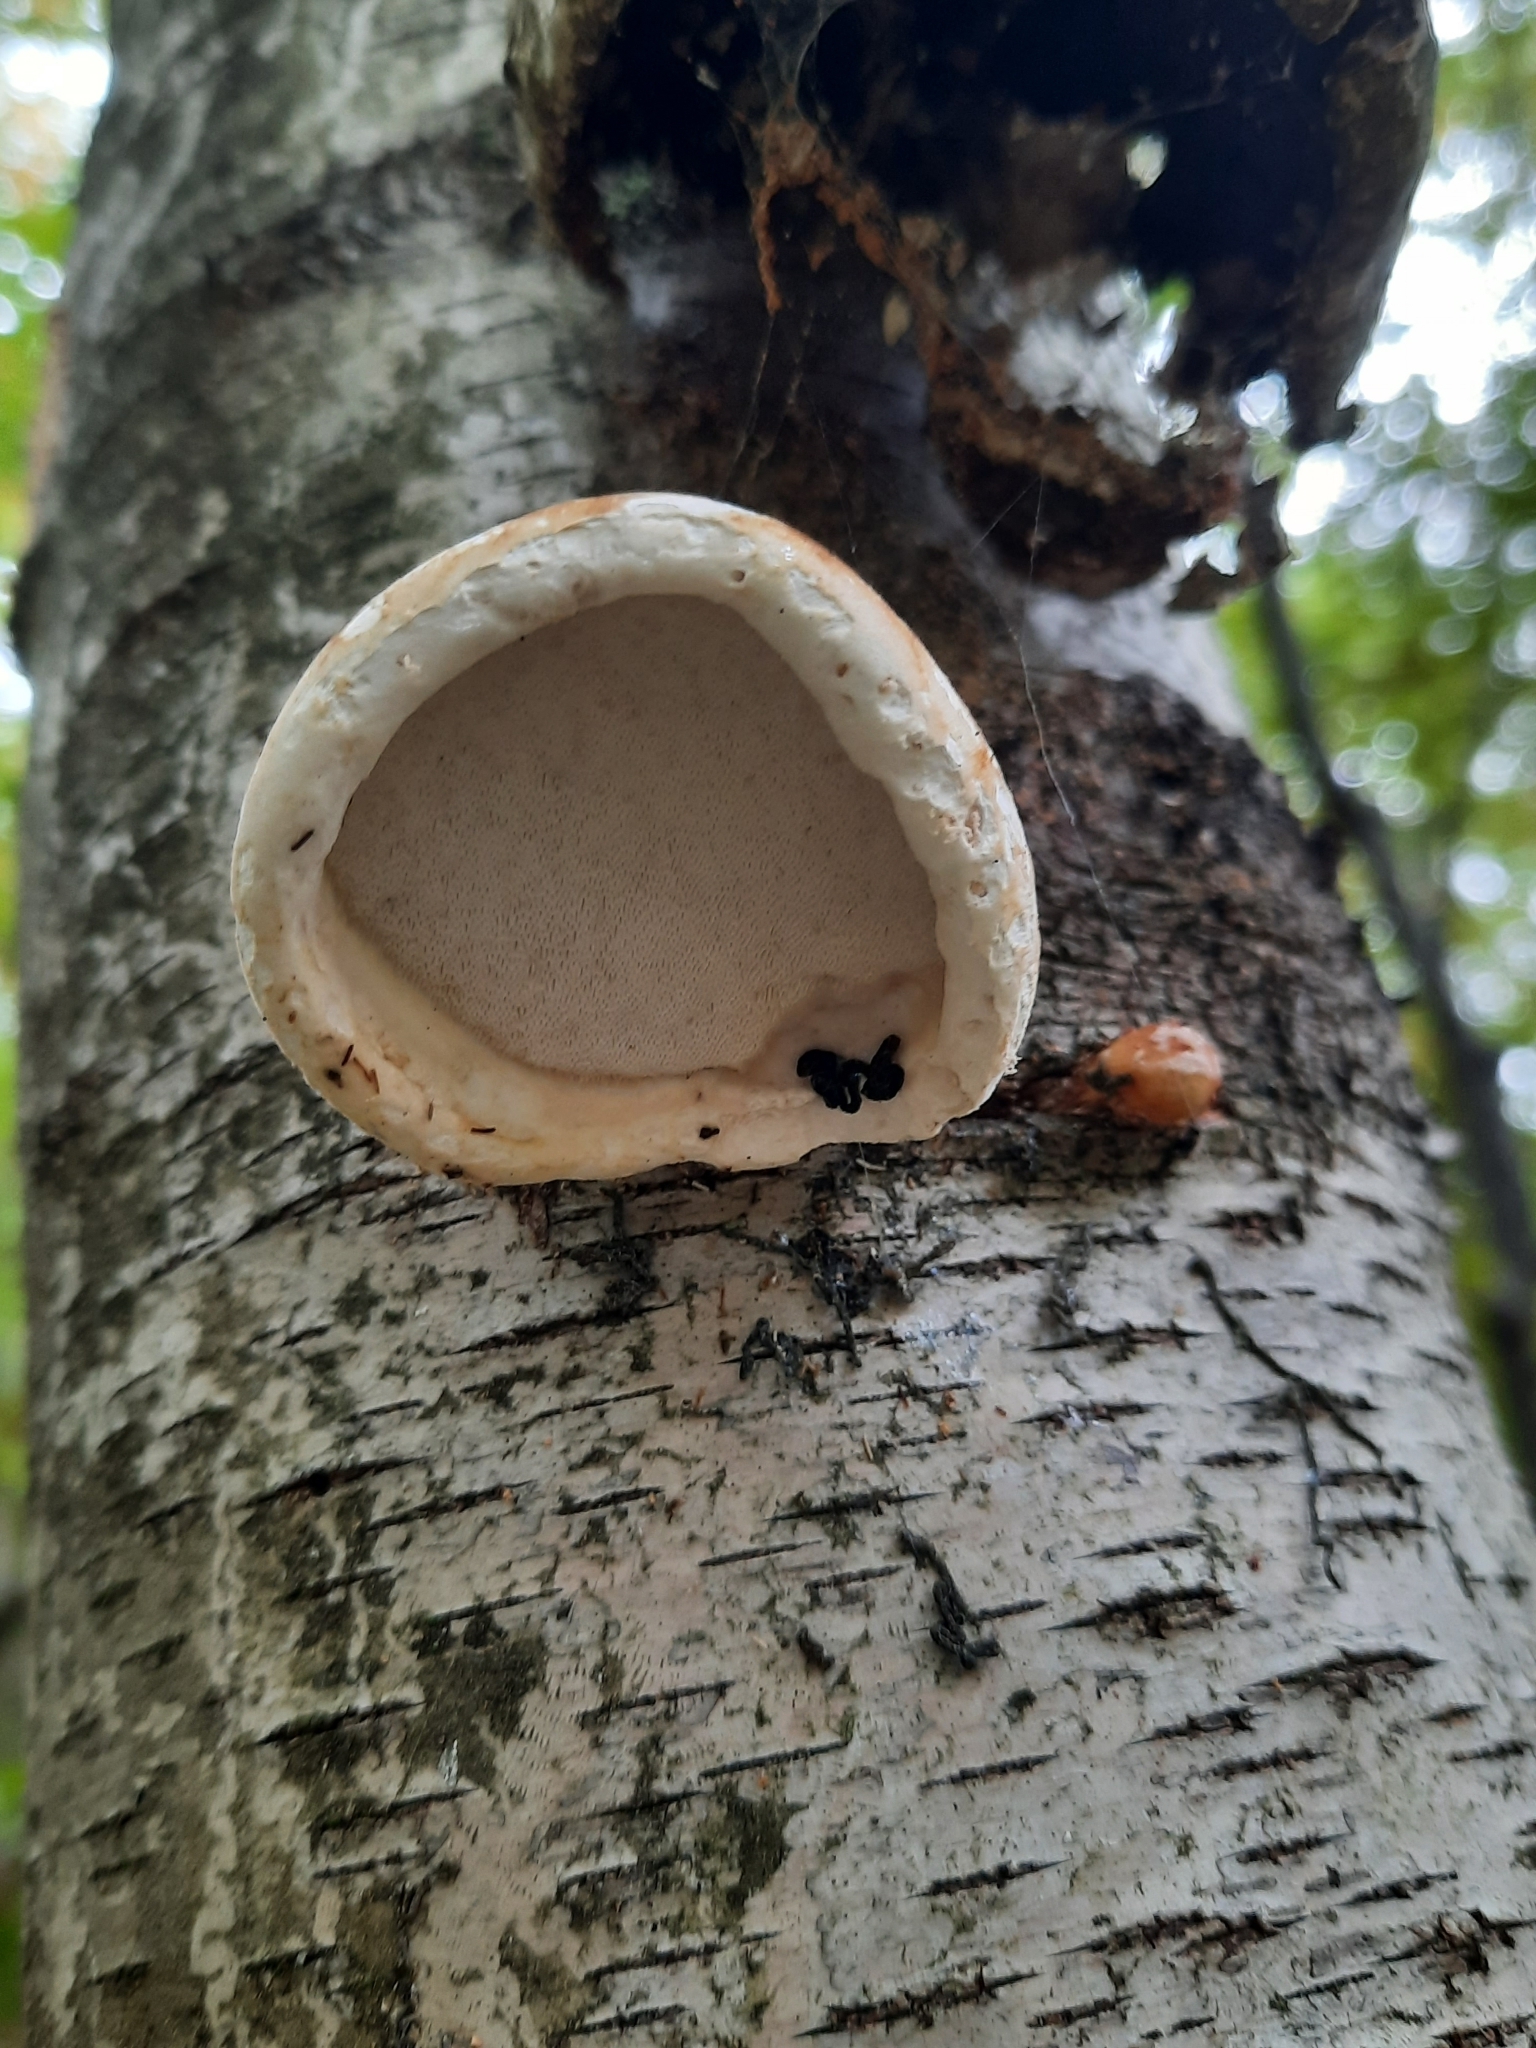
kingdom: Fungi
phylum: Basidiomycota
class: Agaricomycetes
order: Polyporales
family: Fomitopsidaceae
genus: Fomitopsis
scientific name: Fomitopsis betulina
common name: Birch polypore
